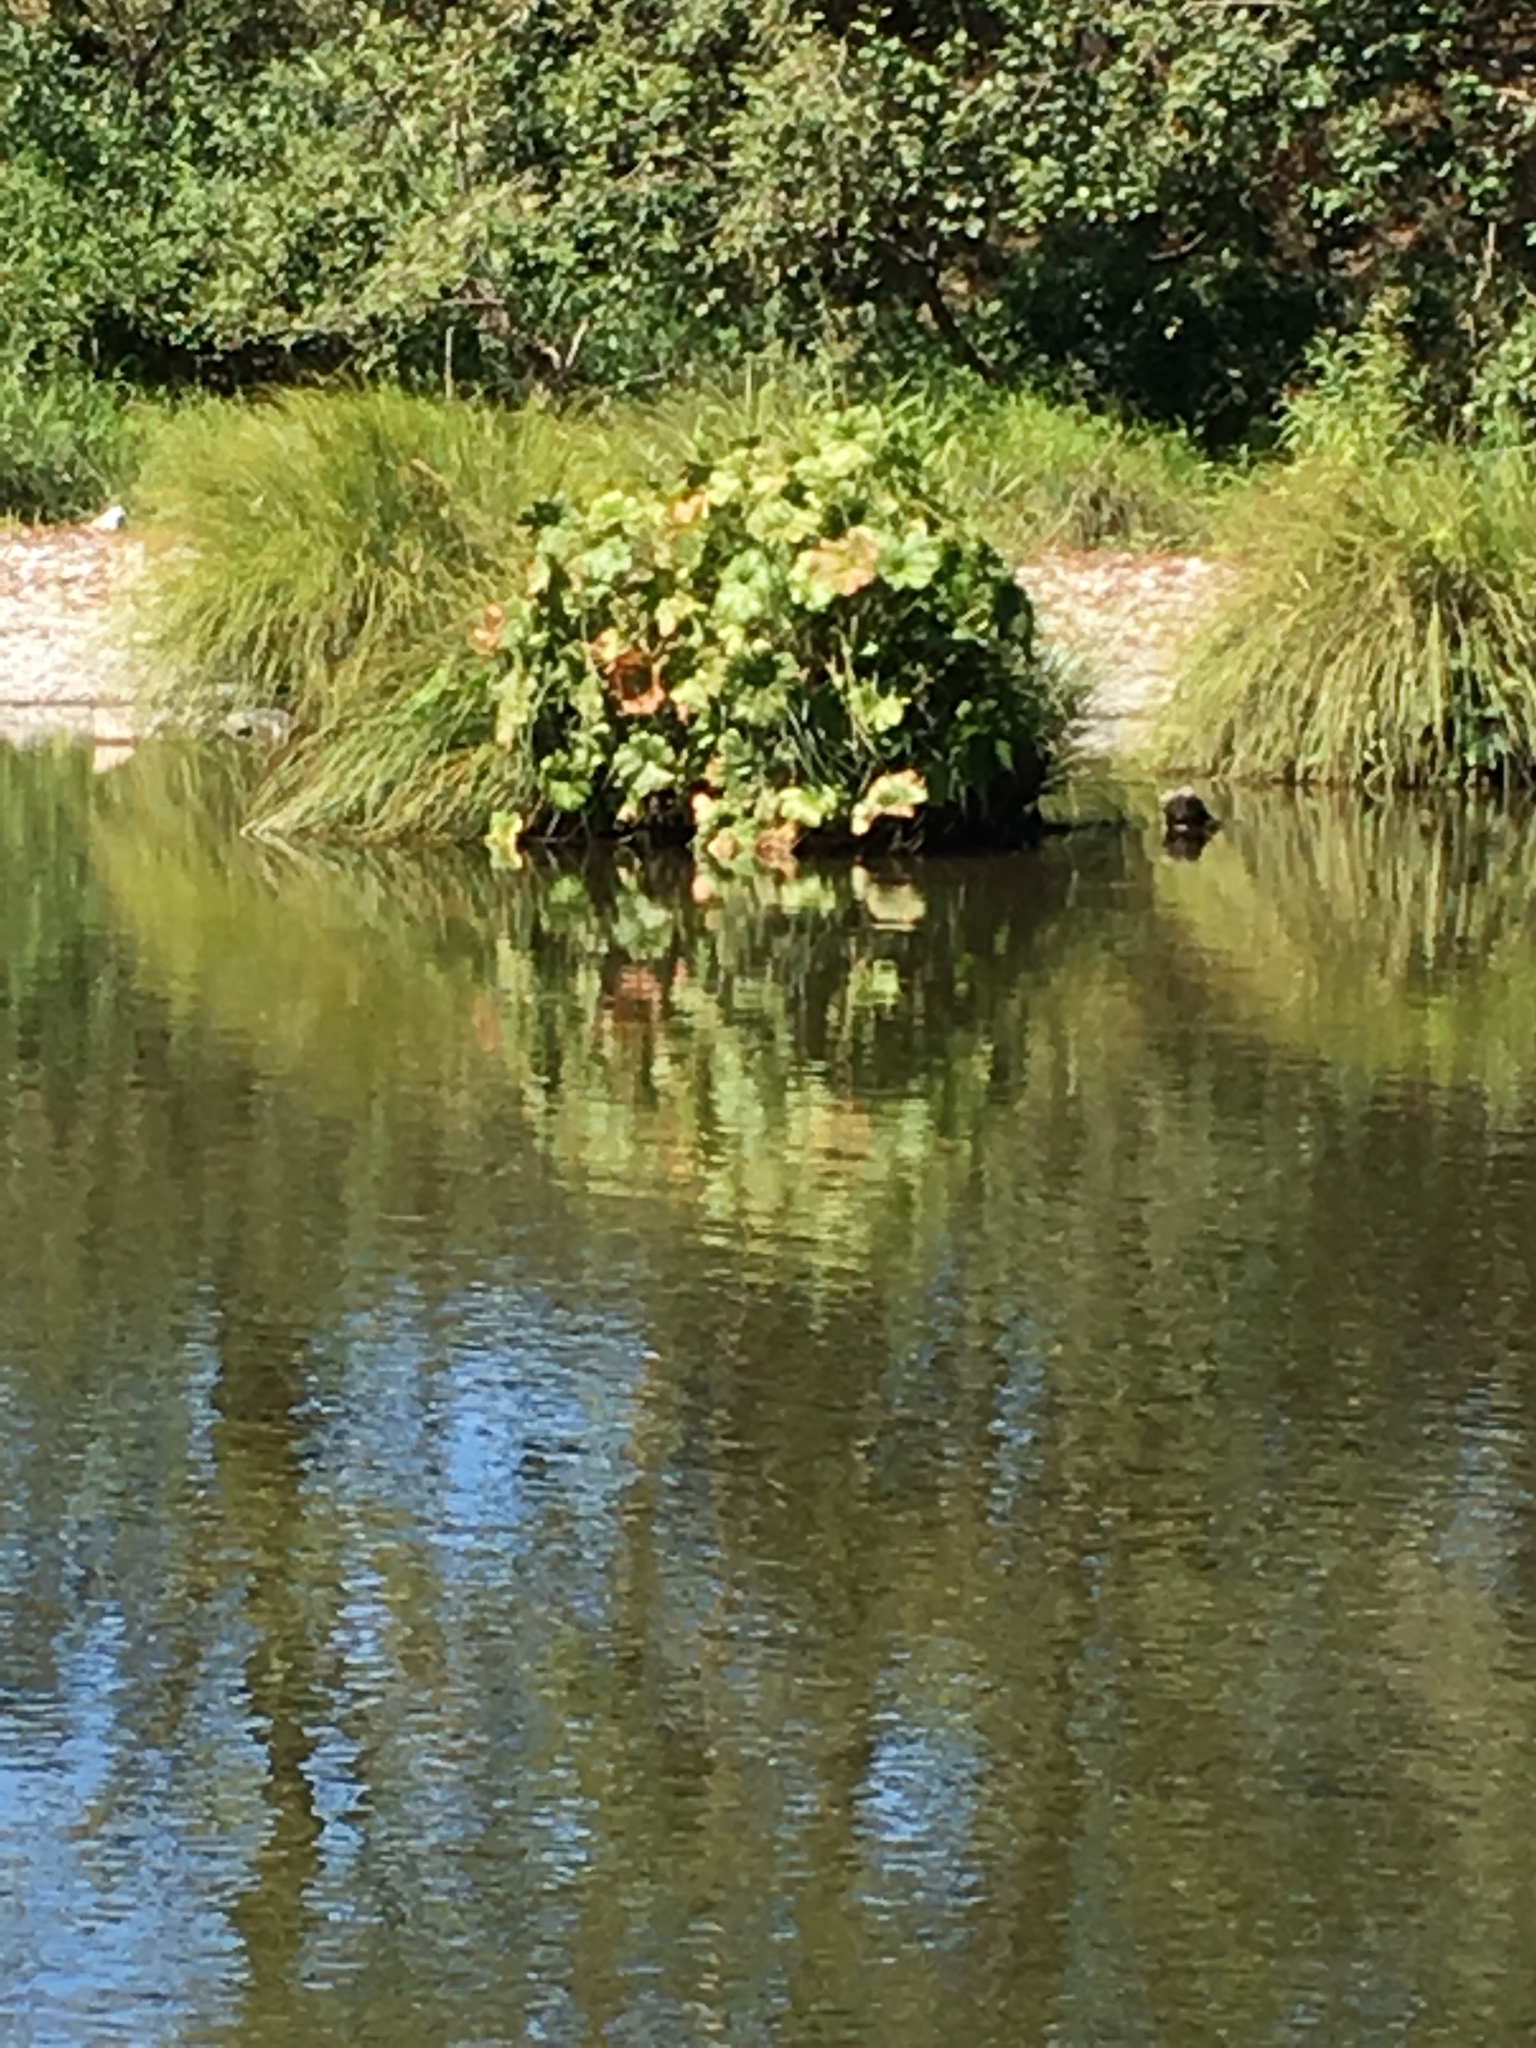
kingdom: Plantae
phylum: Tracheophyta
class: Magnoliopsida
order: Saxifragales
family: Saxifragaceae
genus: Darmera
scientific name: Darmera peltata
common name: Indian-rhubarb
